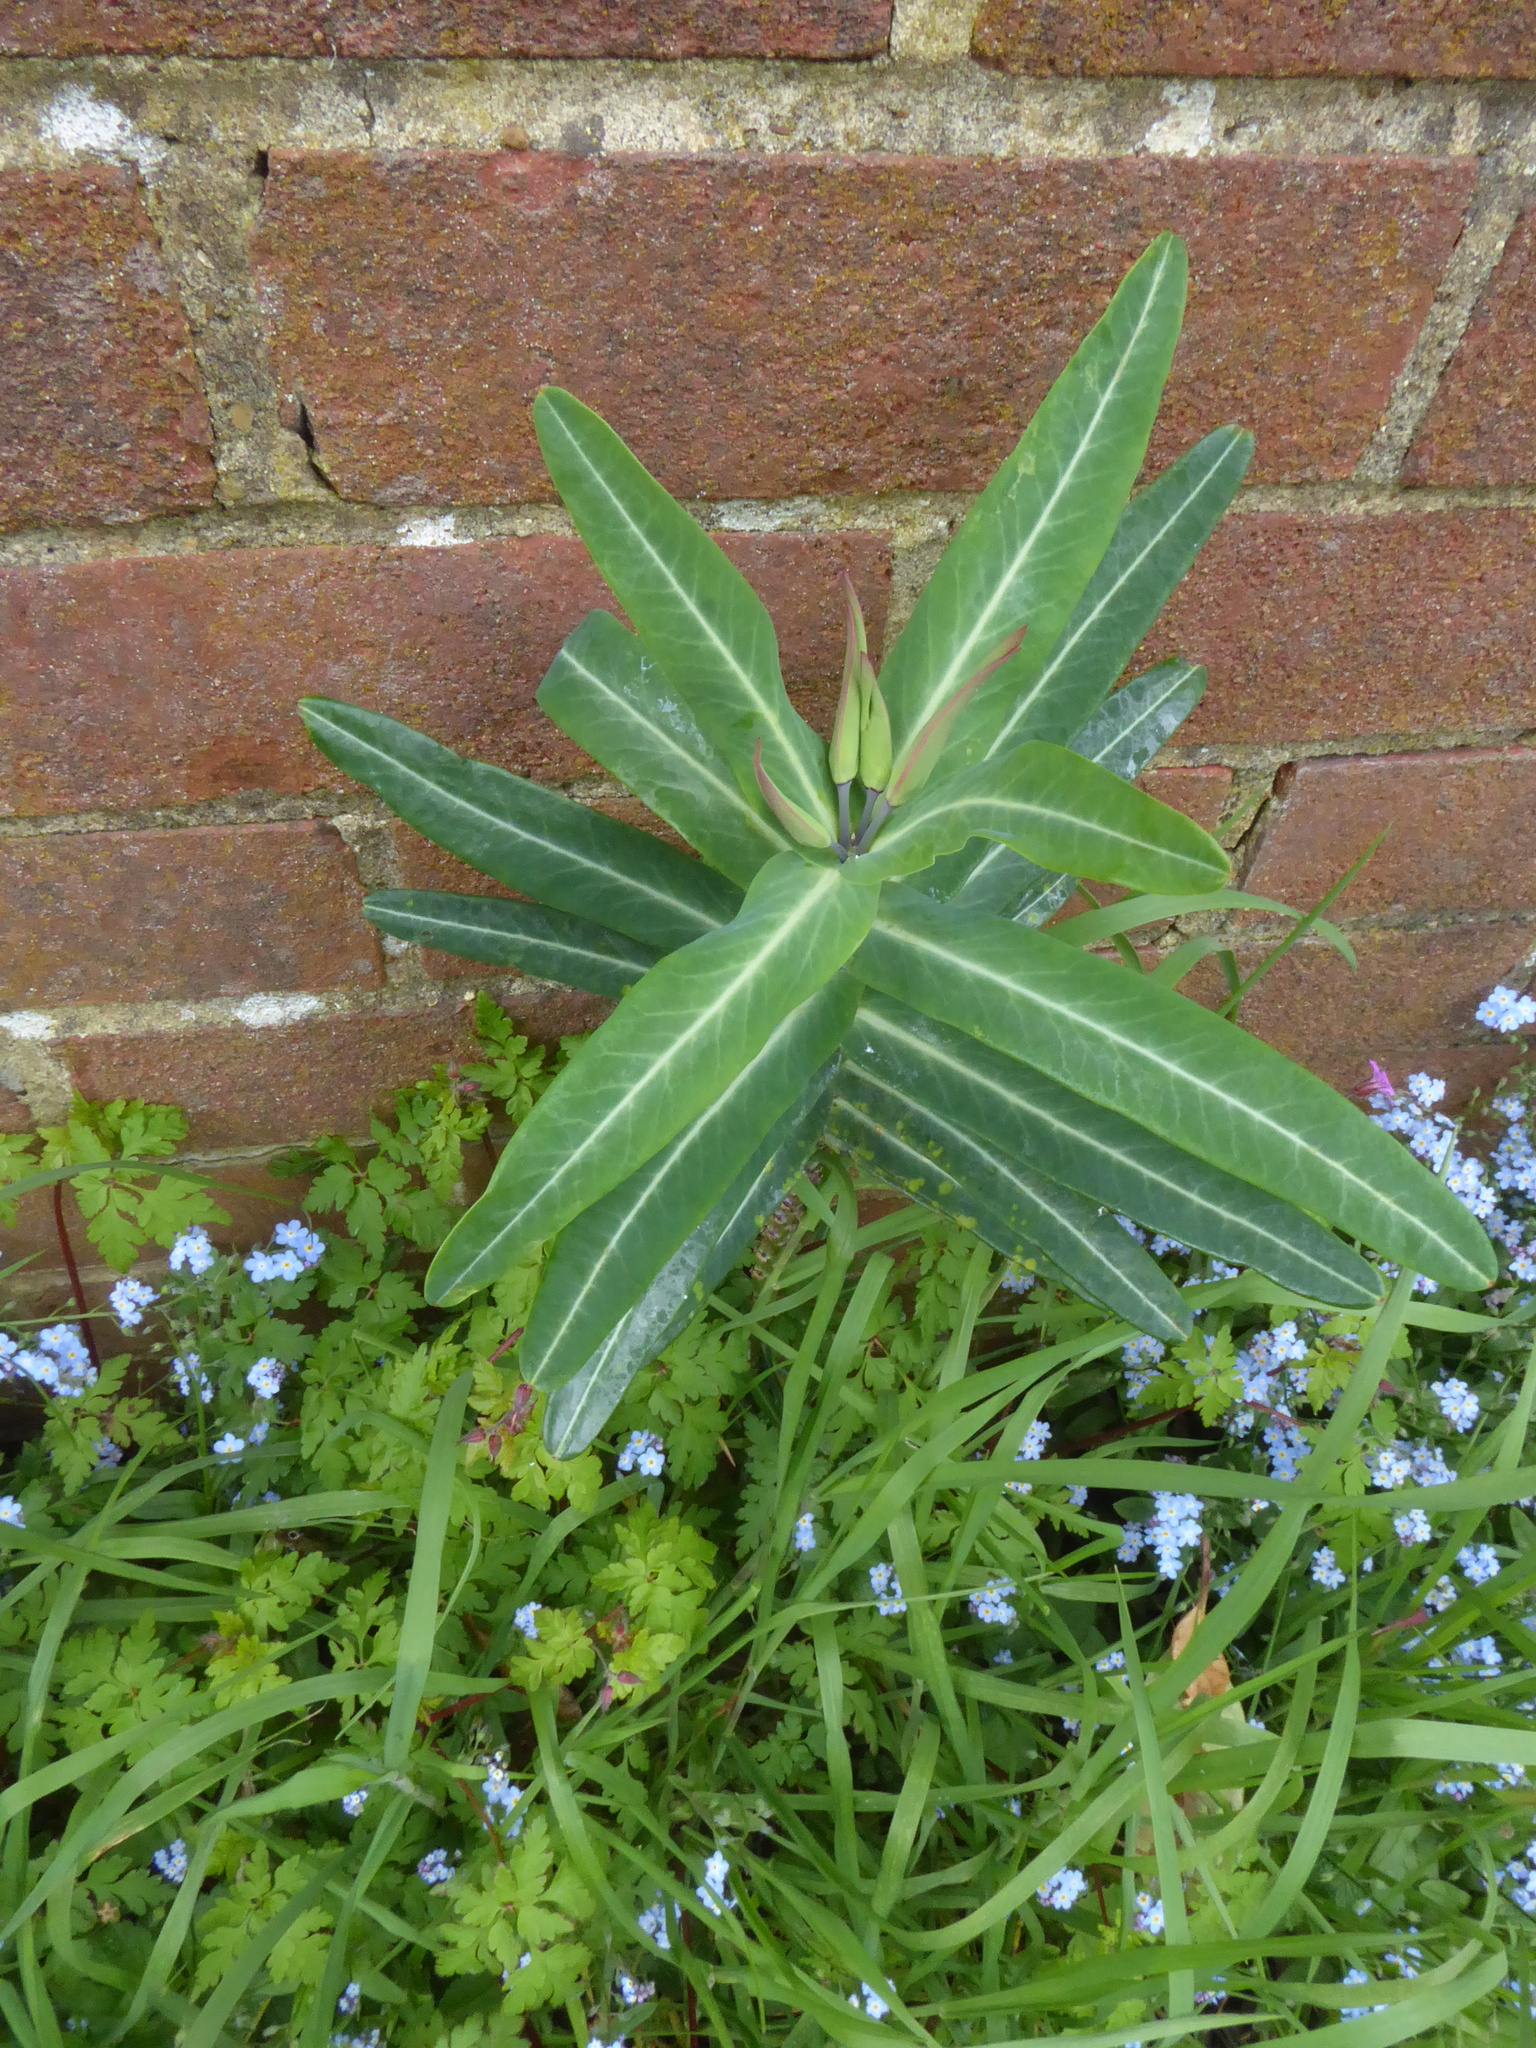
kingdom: Plantae
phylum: Tracheophyta
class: Magnoliopsida
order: Malpighiales
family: Euphorbiaceae
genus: Euphorbia
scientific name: Euphorbia lathyris
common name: Caper spurge
